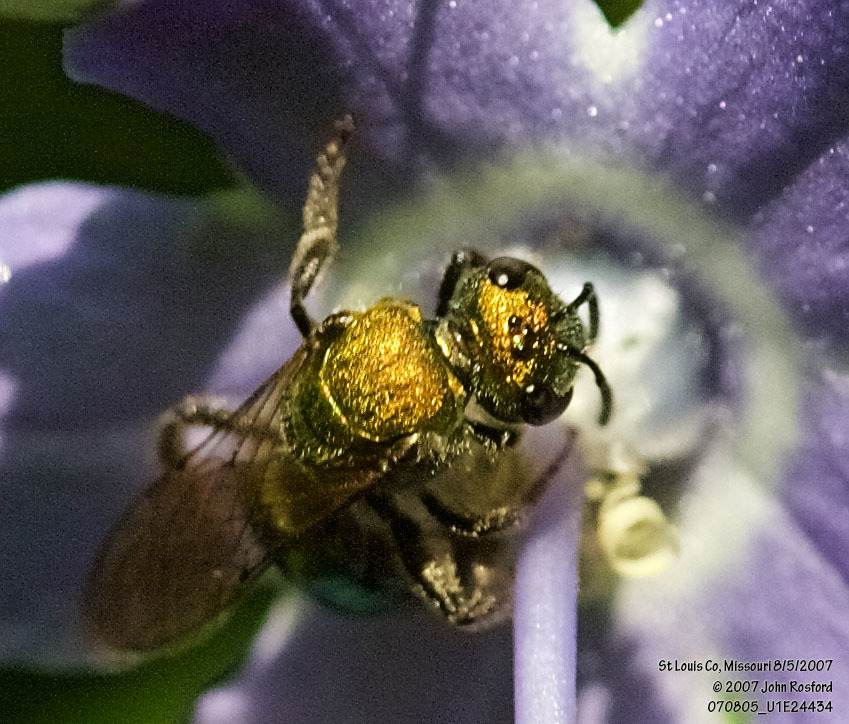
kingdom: Animalia
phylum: Arthropoda
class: Insecta
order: Hymenoptera
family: Halictidae
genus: Augochlora
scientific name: Augochlora pura
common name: Pure green sweat bee
